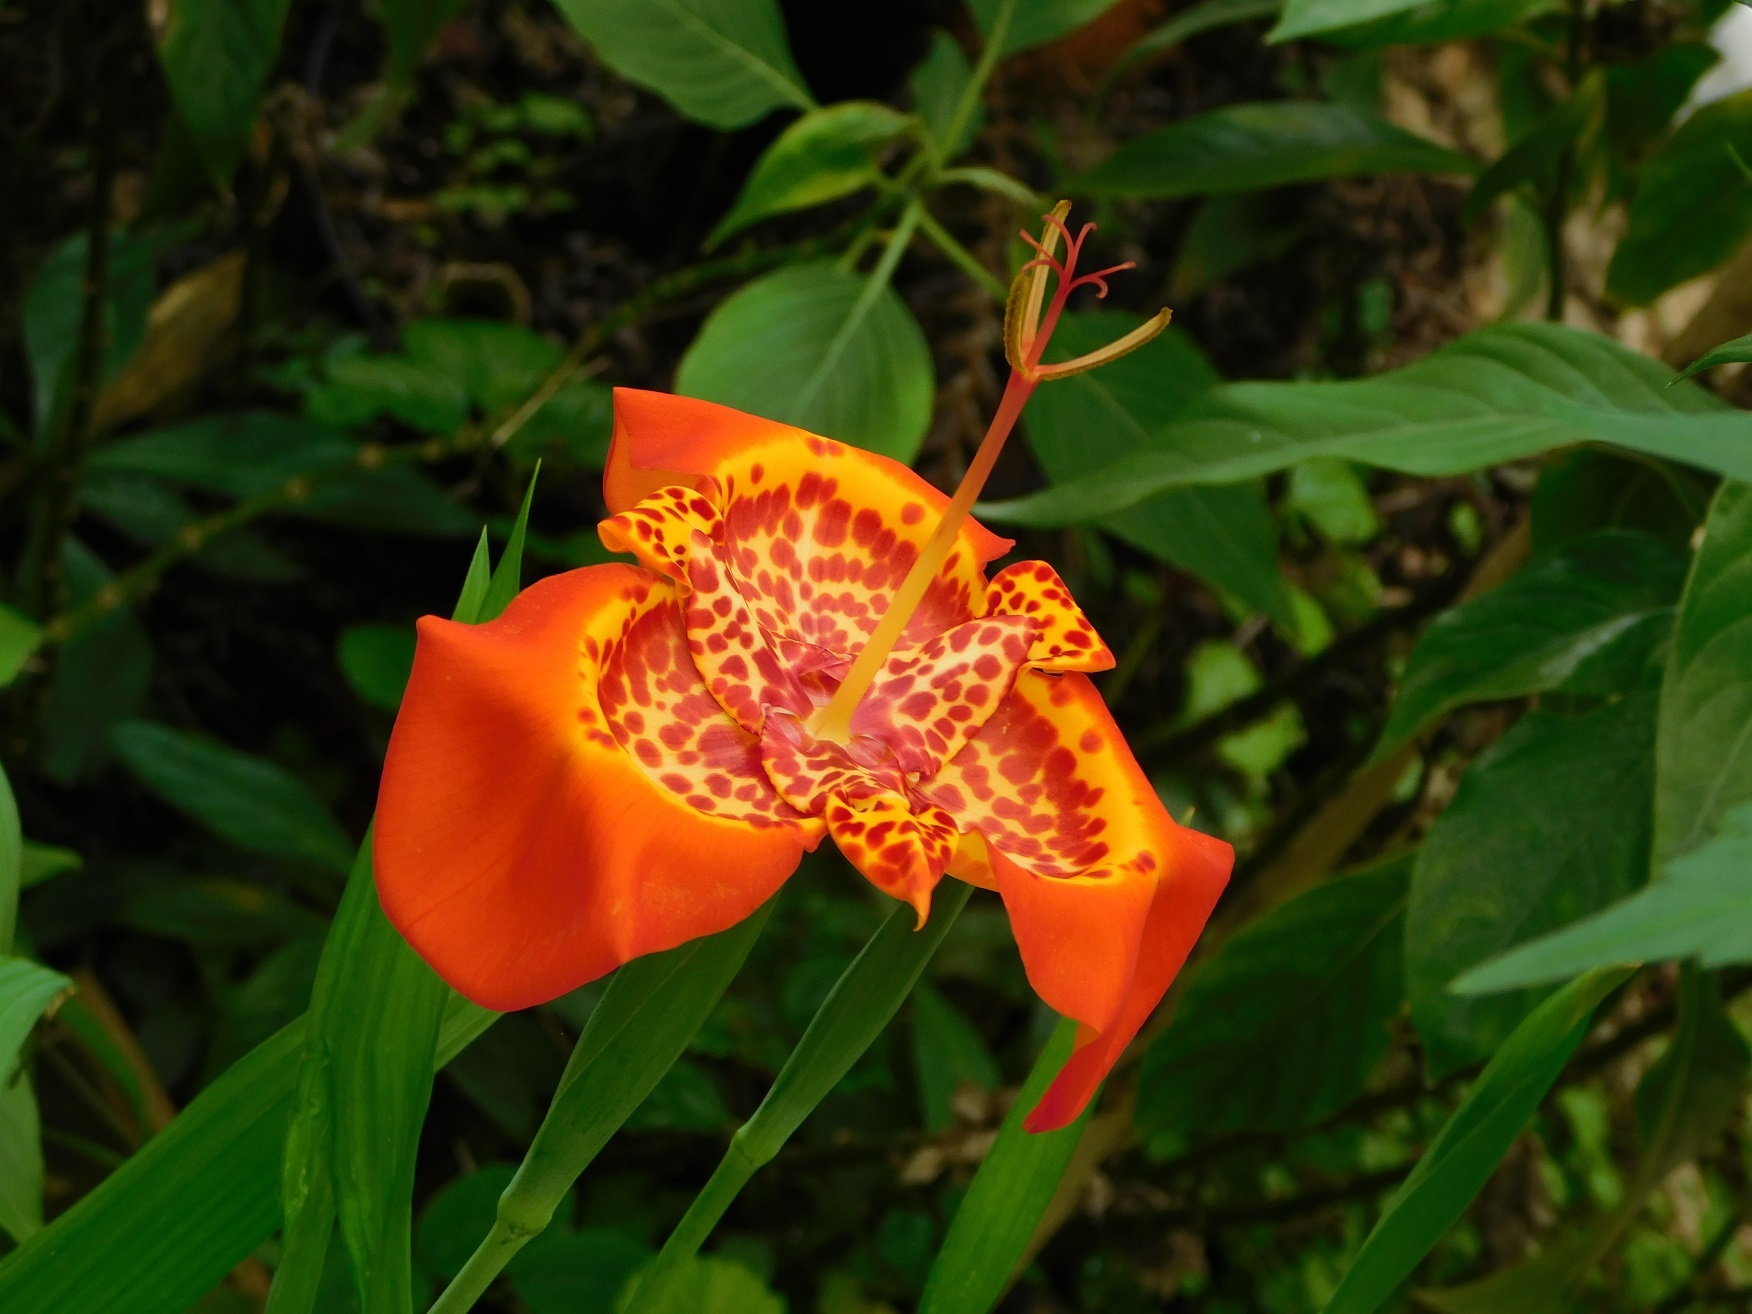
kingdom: Plantae
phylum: Tracheophyta
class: Liliopsida
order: Asparagales
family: Iridaceae
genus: Tigridia
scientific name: Tigridia pavonia
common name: Peacock-flower
